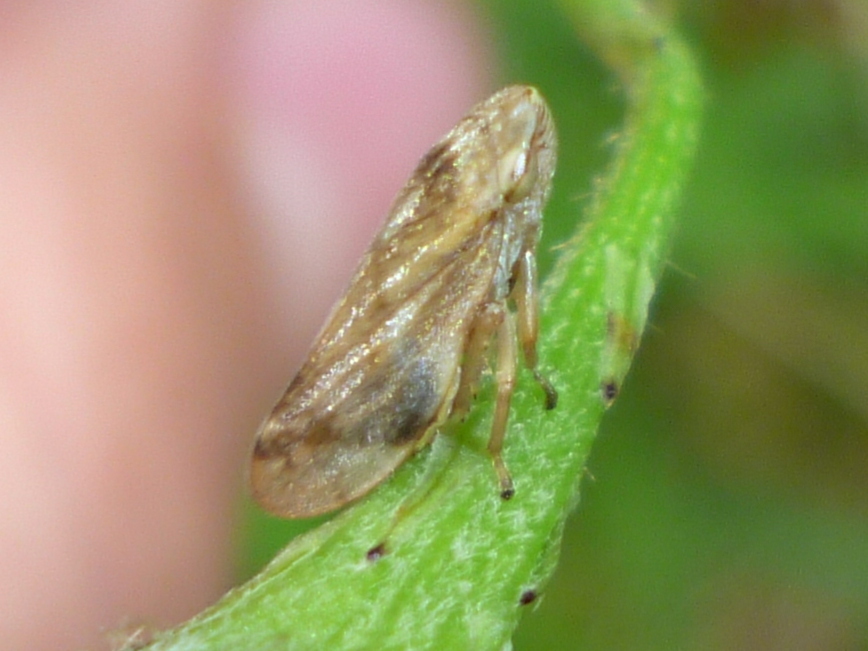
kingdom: Animalia
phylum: Arthropoda
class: Insecta
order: Hemiptera
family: Aphrophoridae
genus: Philaenus
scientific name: Philaenus spumarius
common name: Meadow spittlebug
